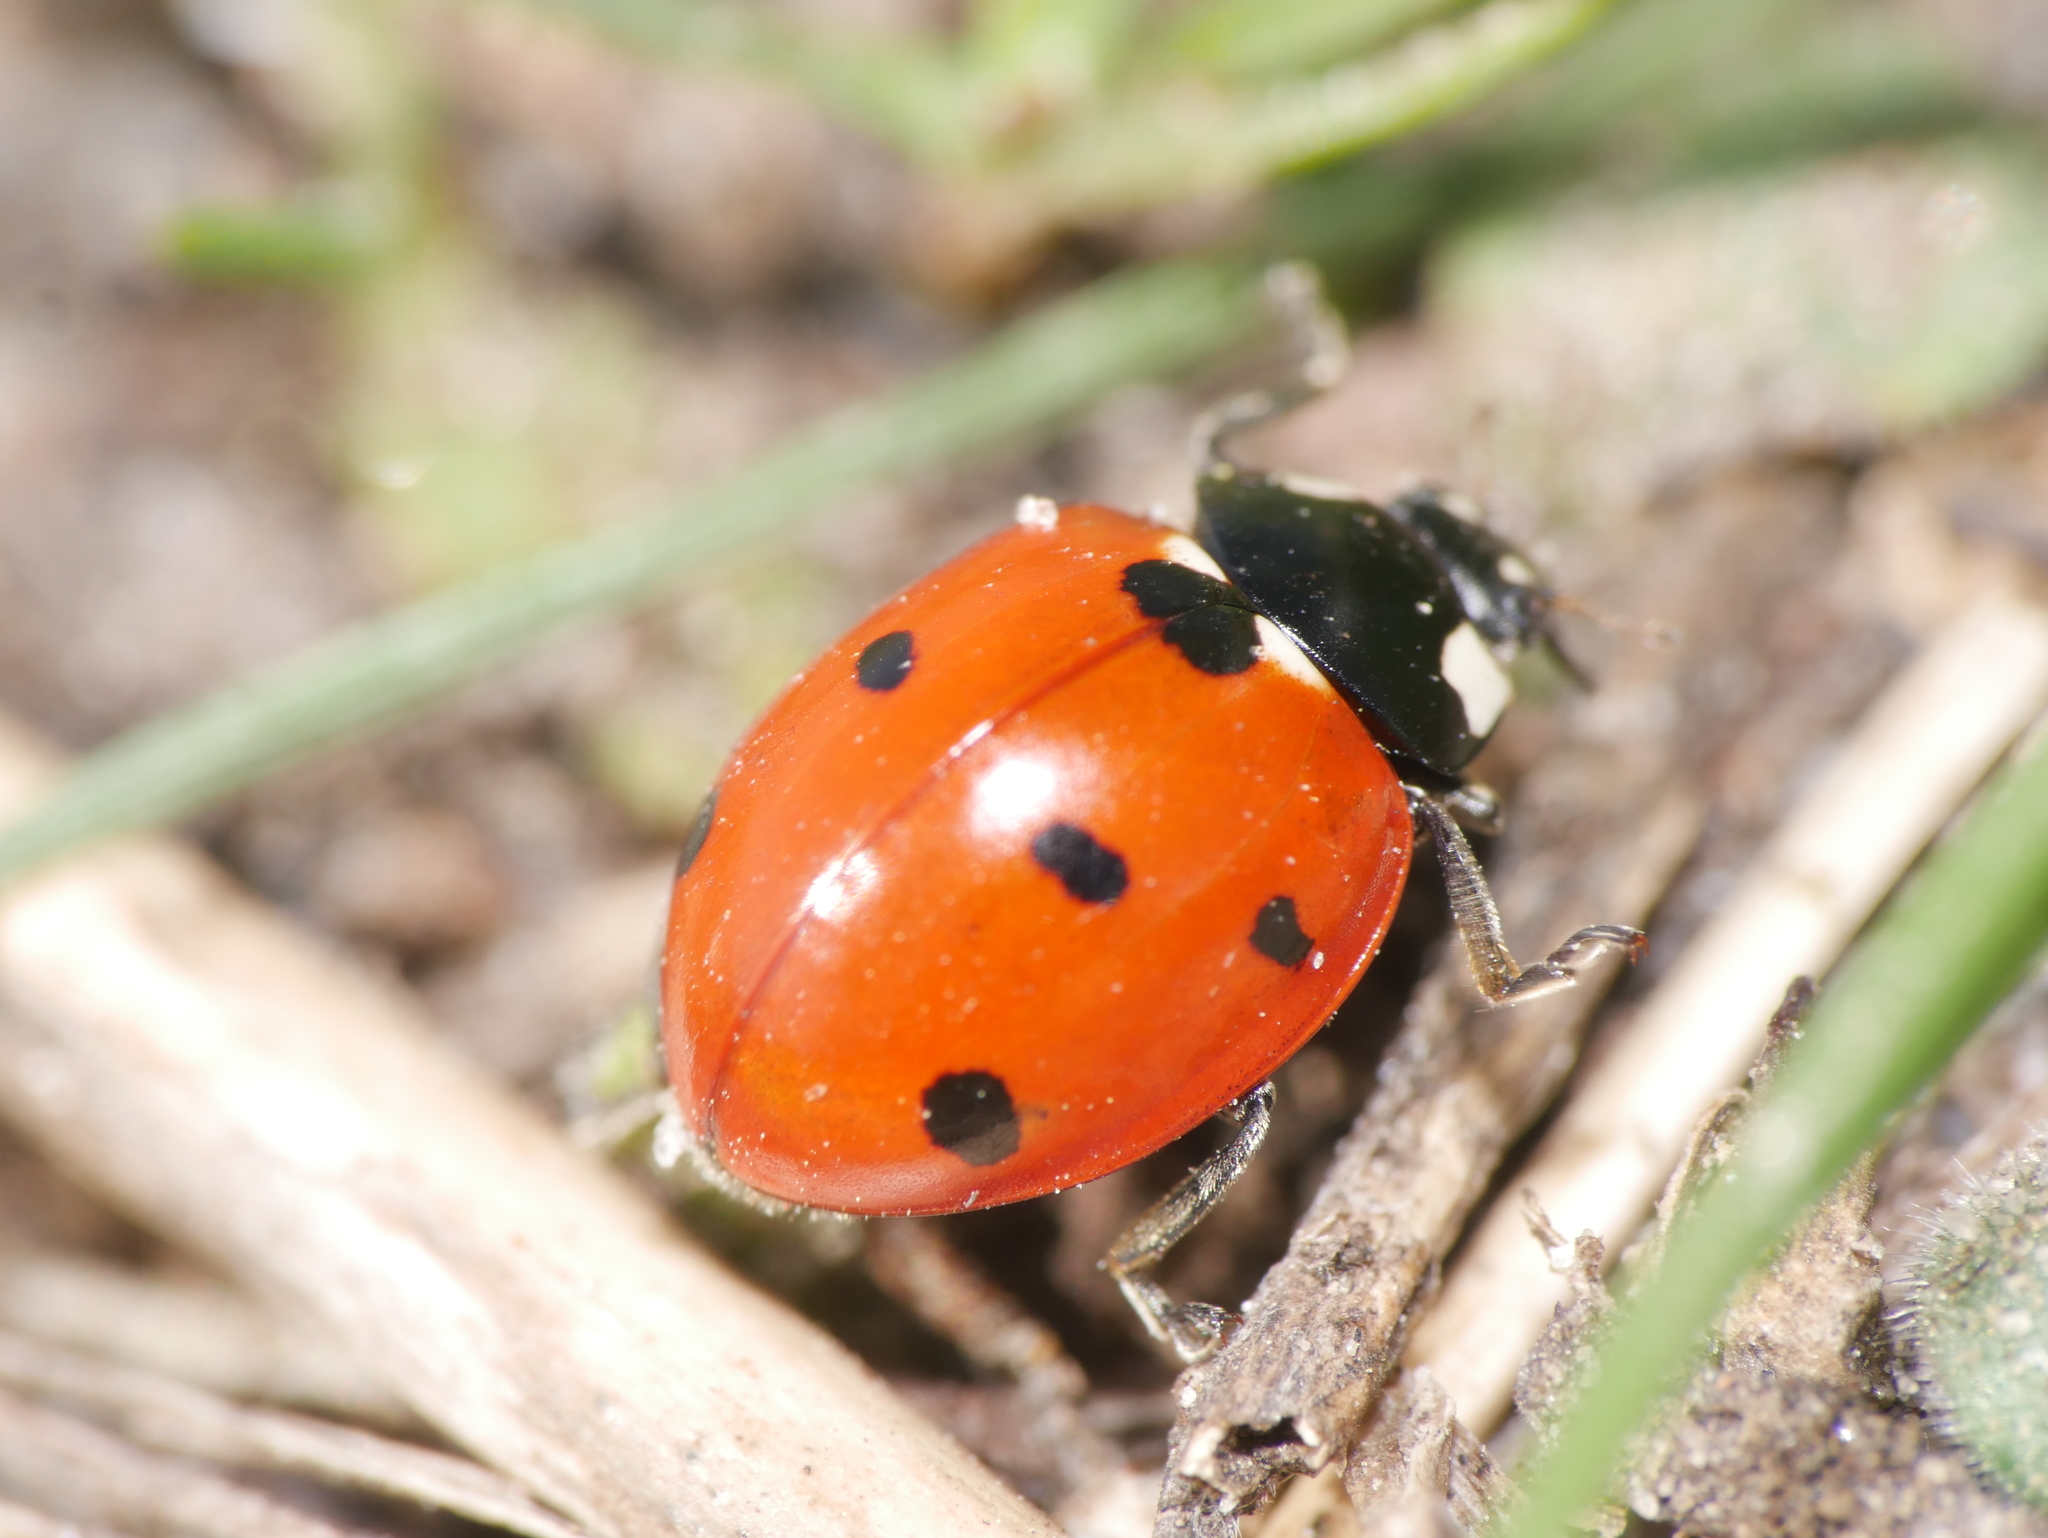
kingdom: Animalia
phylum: Arthropoda
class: Insecta
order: Coleoptera
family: Coccinellidae
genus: Coccinella
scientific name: Coccinella septempunctata
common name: Sevenspotted lady beetle
